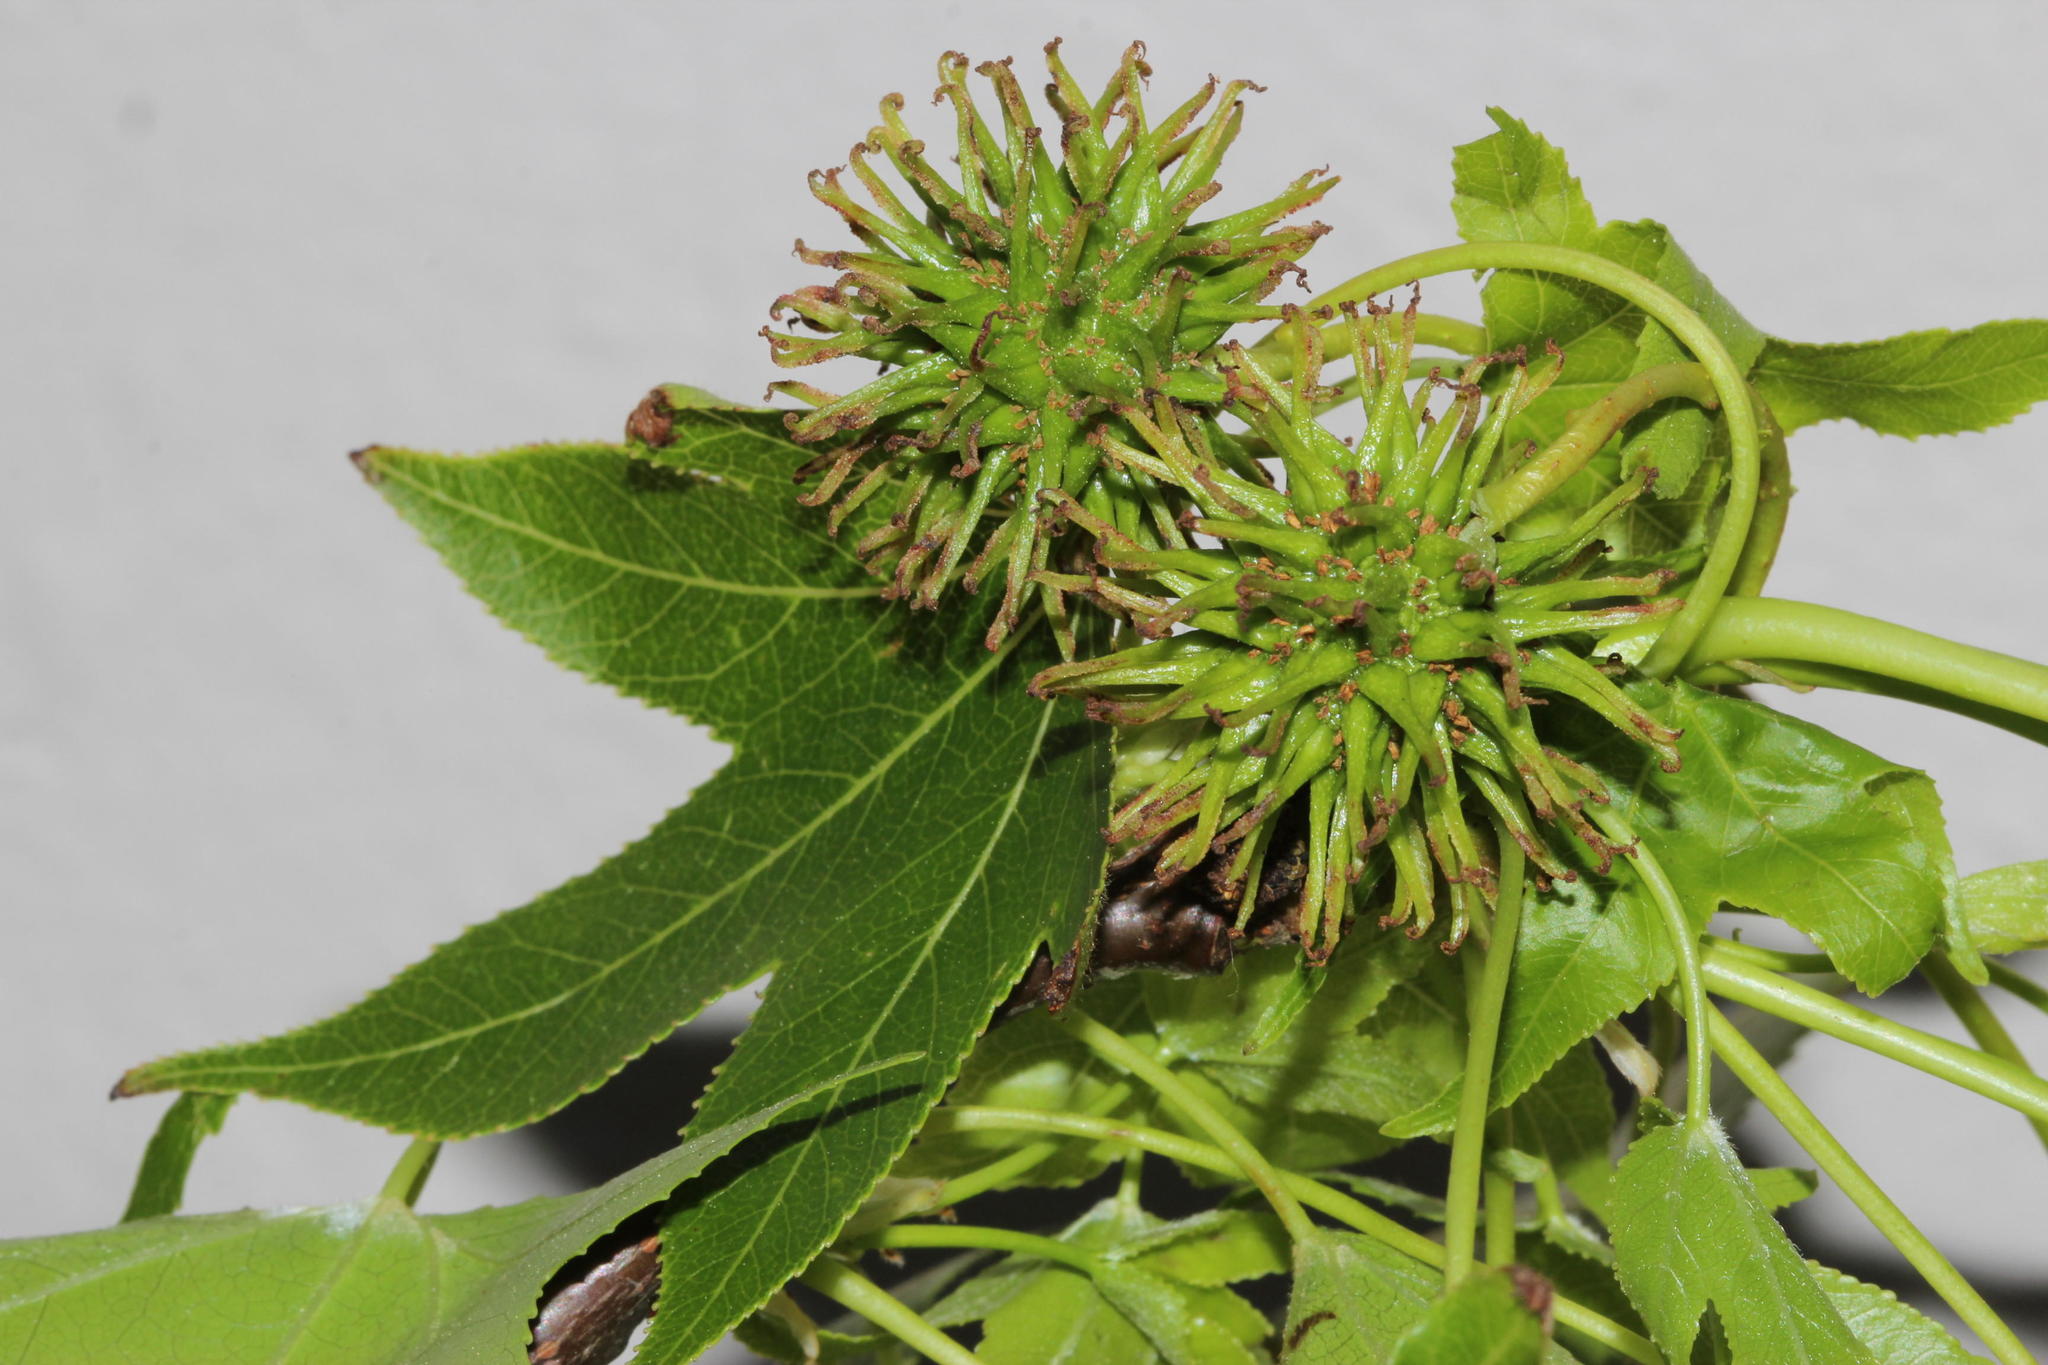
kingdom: Plantae
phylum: Tracheophyta
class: Magnoliopsida
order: Saxifragales
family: Altingiaceae
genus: Liquidambar
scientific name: Liquidambar styraciflua
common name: Sweet gum
